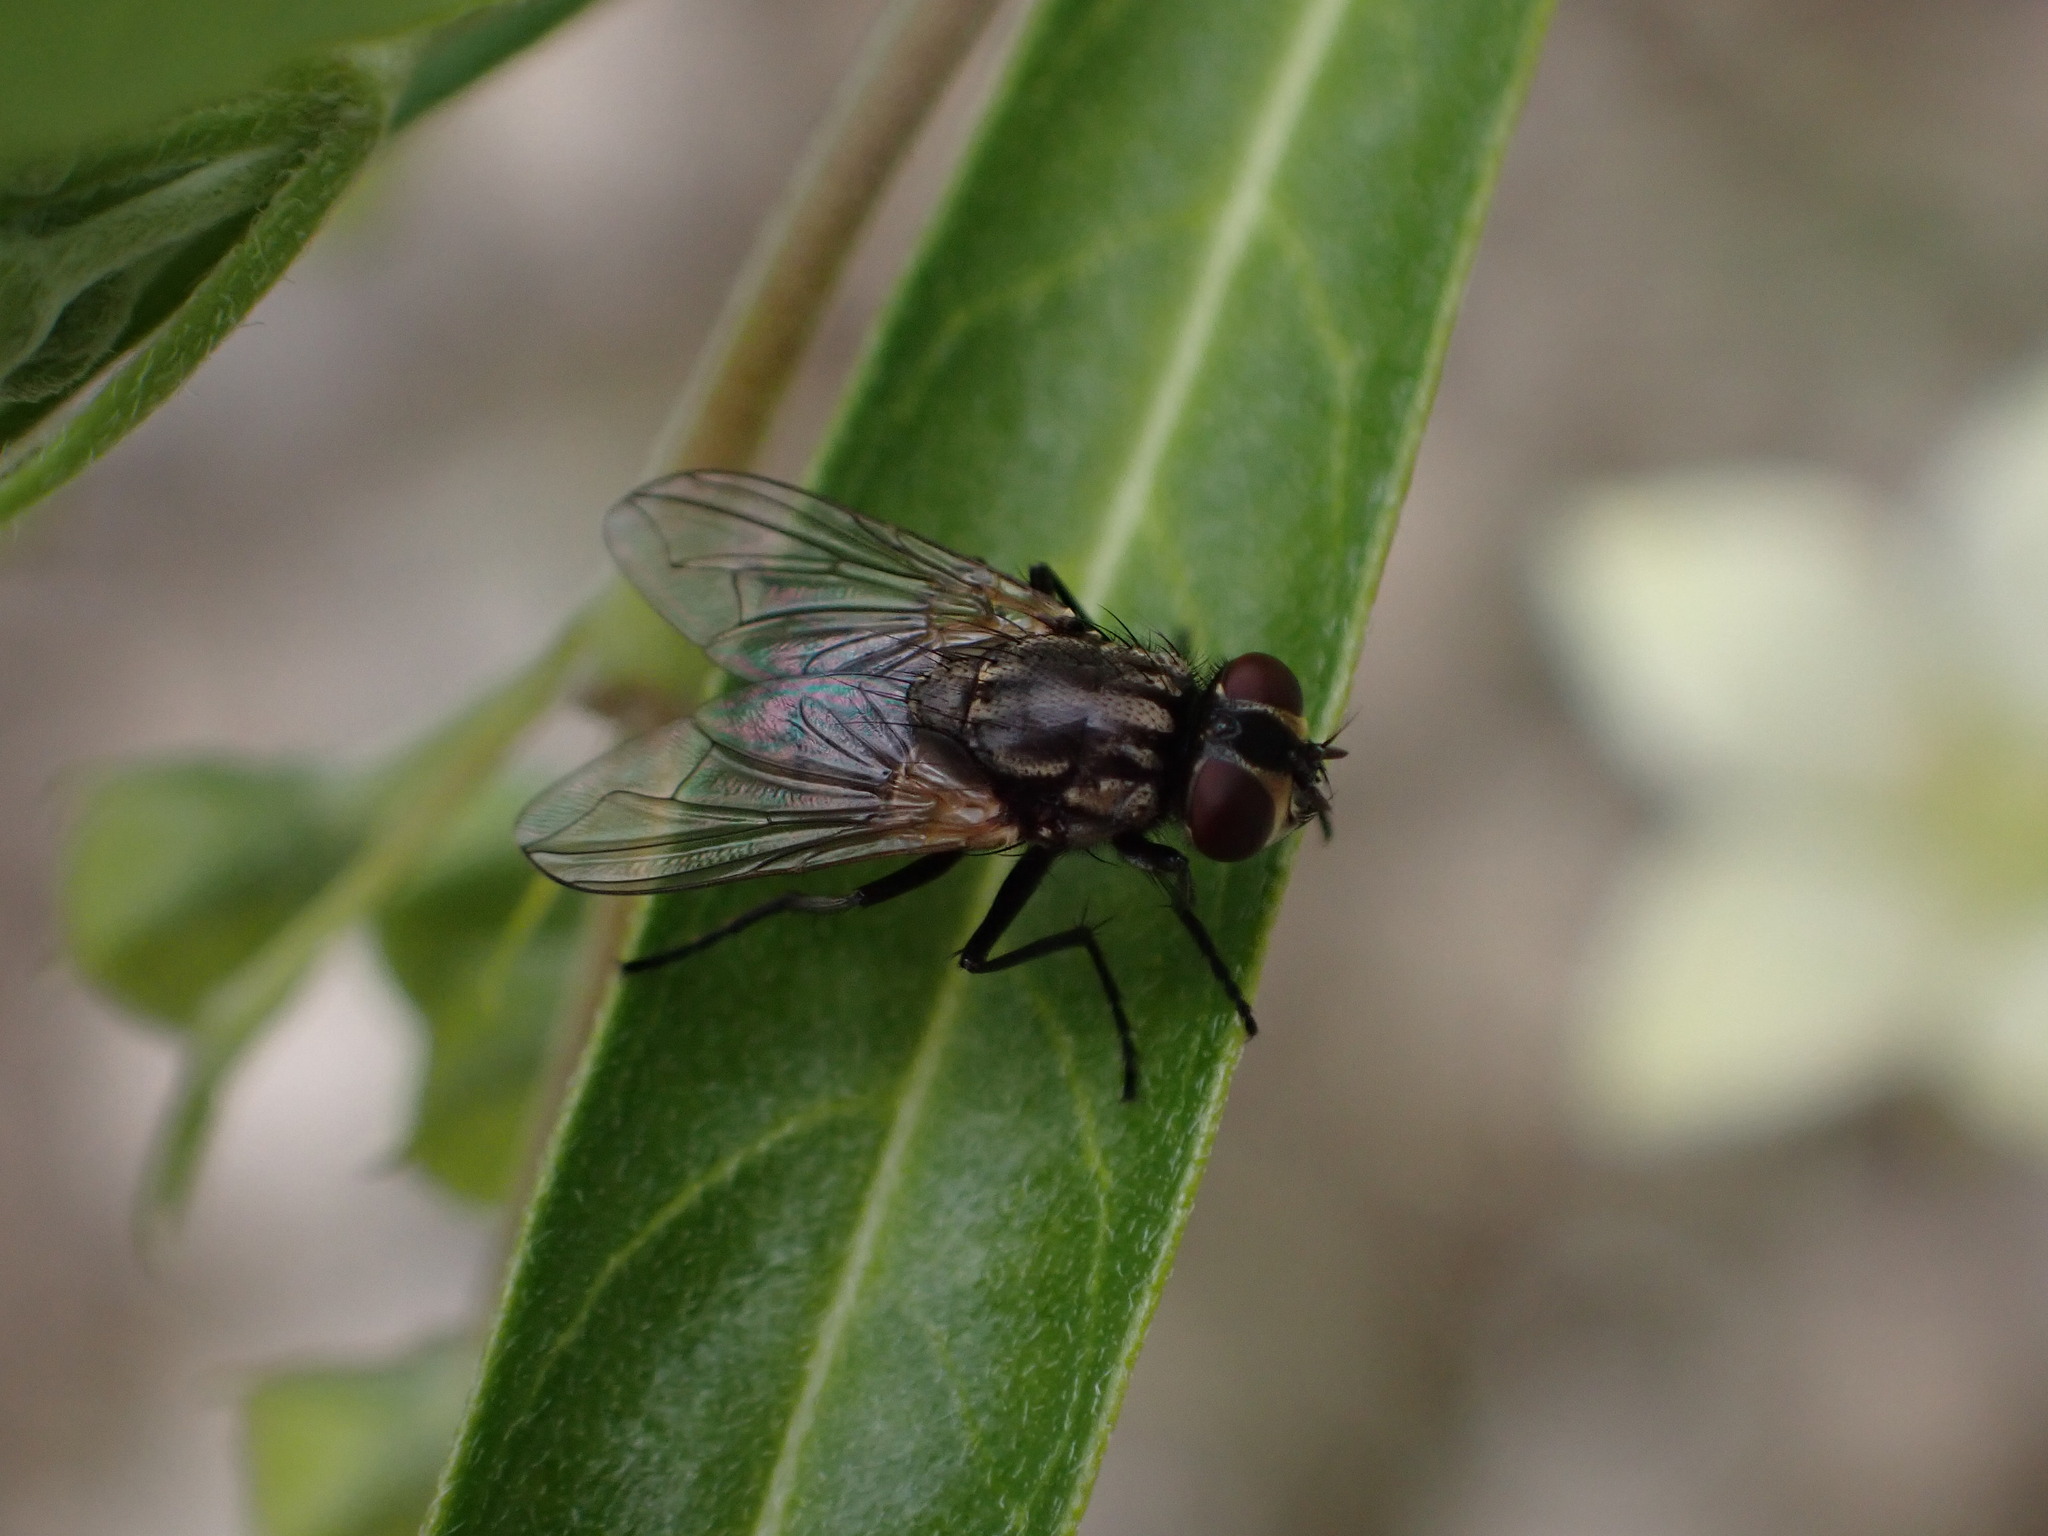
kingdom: Animalia
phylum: Arthropoda
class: Insecta
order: Diptera
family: Muscidae
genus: Musca
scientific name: Musca domestica
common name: House fly
